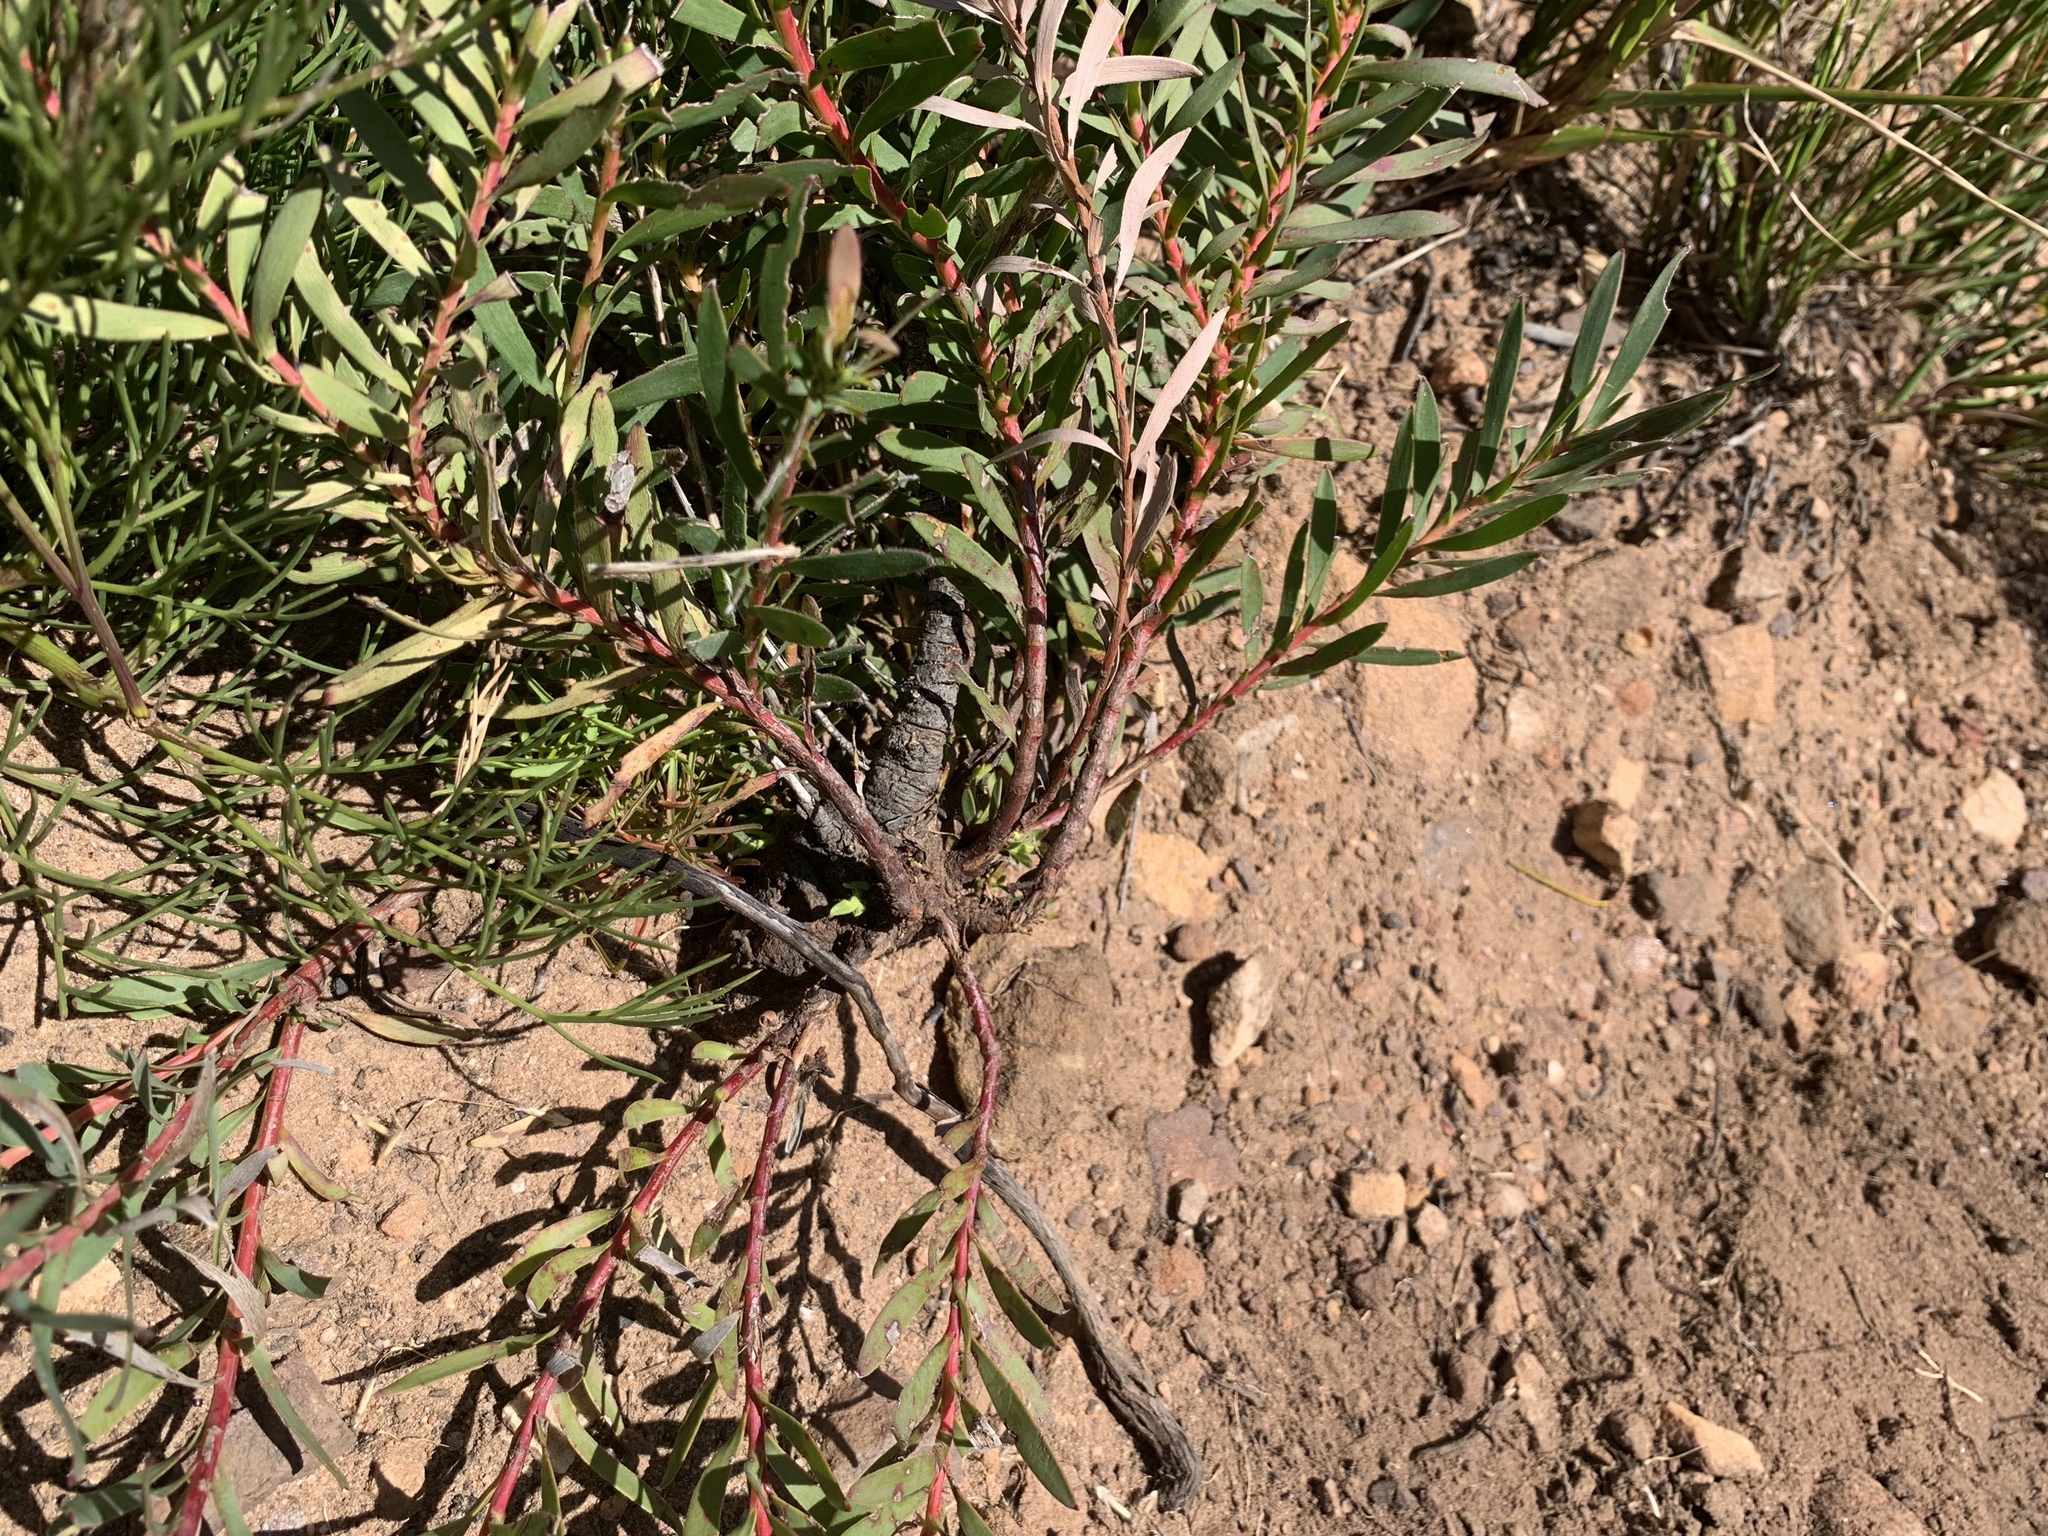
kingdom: Plantae
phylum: Tracheophyta
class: Magnoliopsida
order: Proteales
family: Proteaceae
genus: Leucadendron
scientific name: Leucadendron salignum
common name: Common sunshine conebush
